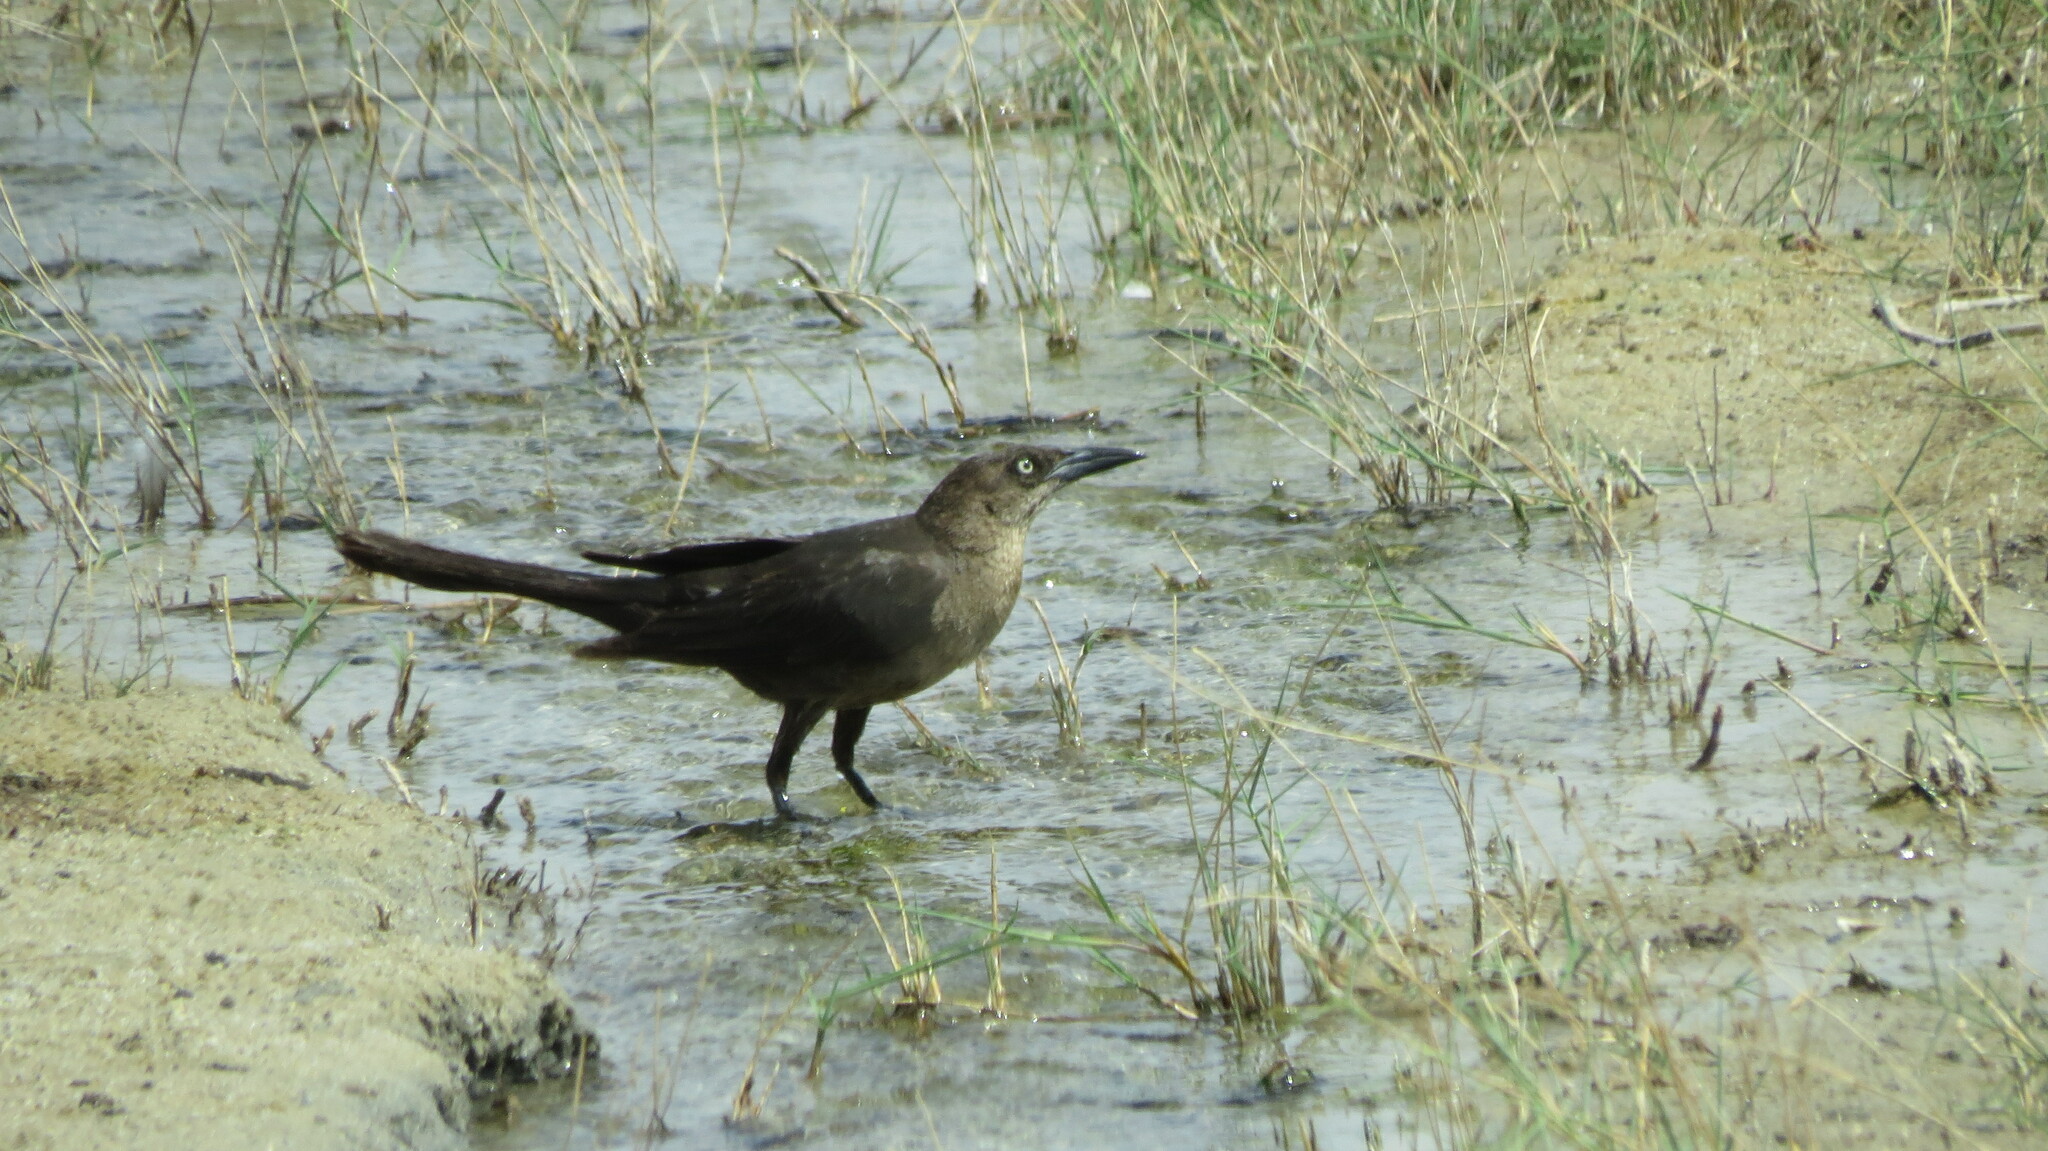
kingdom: Animalia
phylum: Chordata
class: Aves
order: Passeriformes
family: Icteridae
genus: Quiscalus
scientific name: Quiscalus mexicanus
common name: Great-tailed grackle
